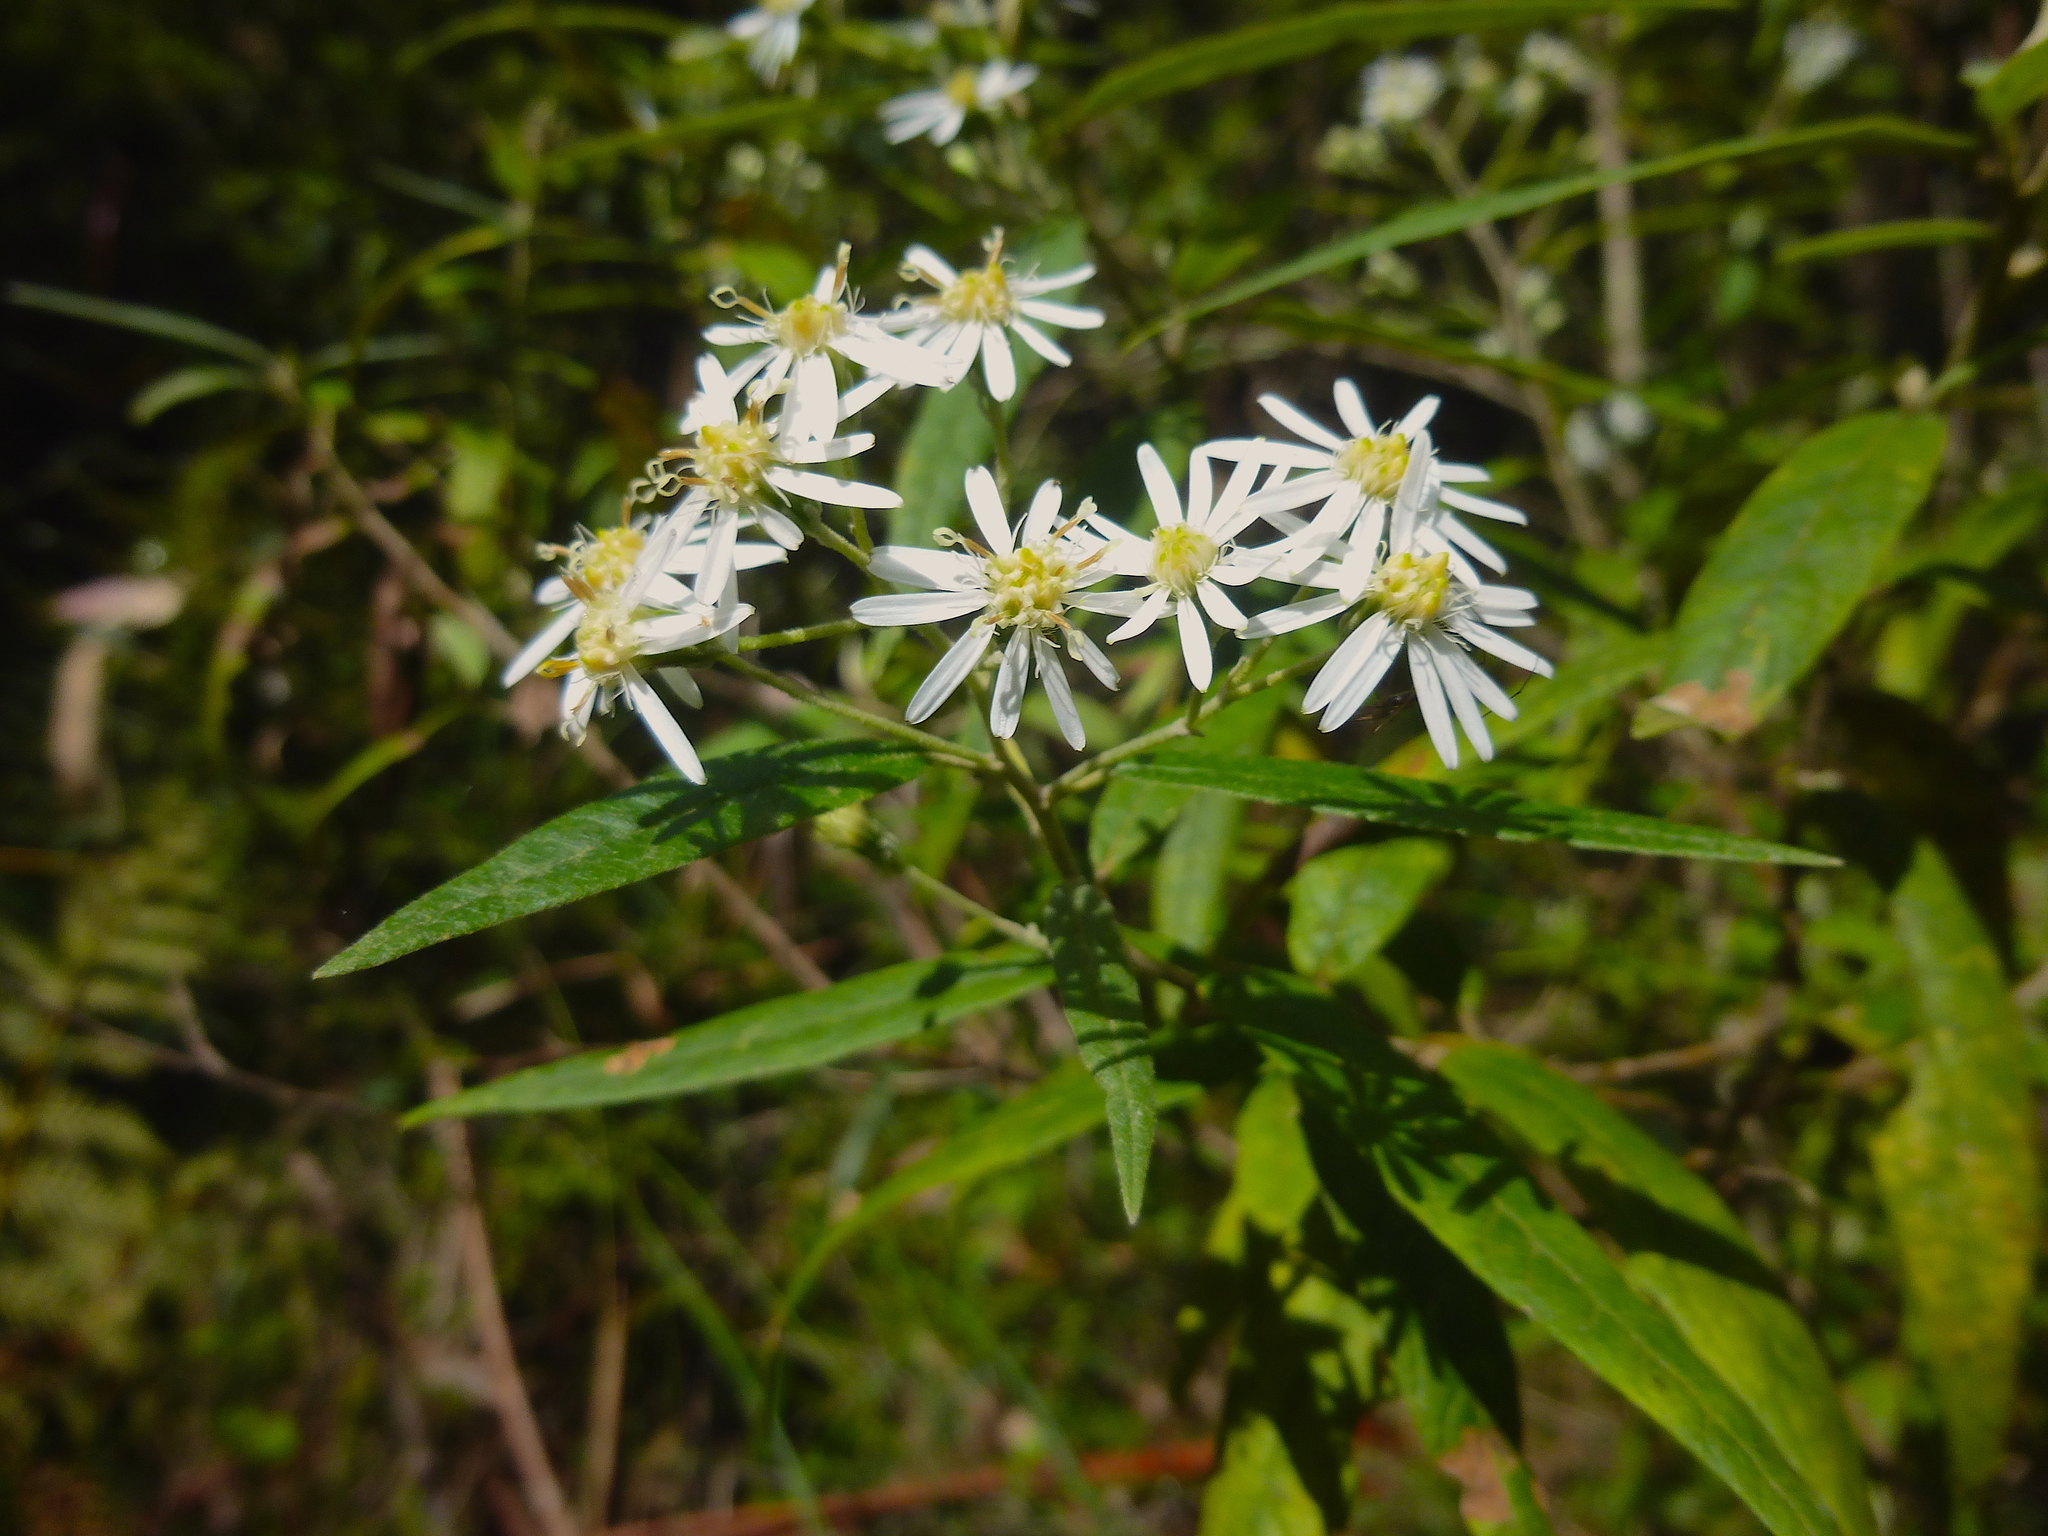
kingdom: Plantae
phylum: Tracheophyta
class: Magnoliopsida
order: Asterales
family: Asteraceae
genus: Olearia
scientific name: Olearia lirata
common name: Dusty daisybush
